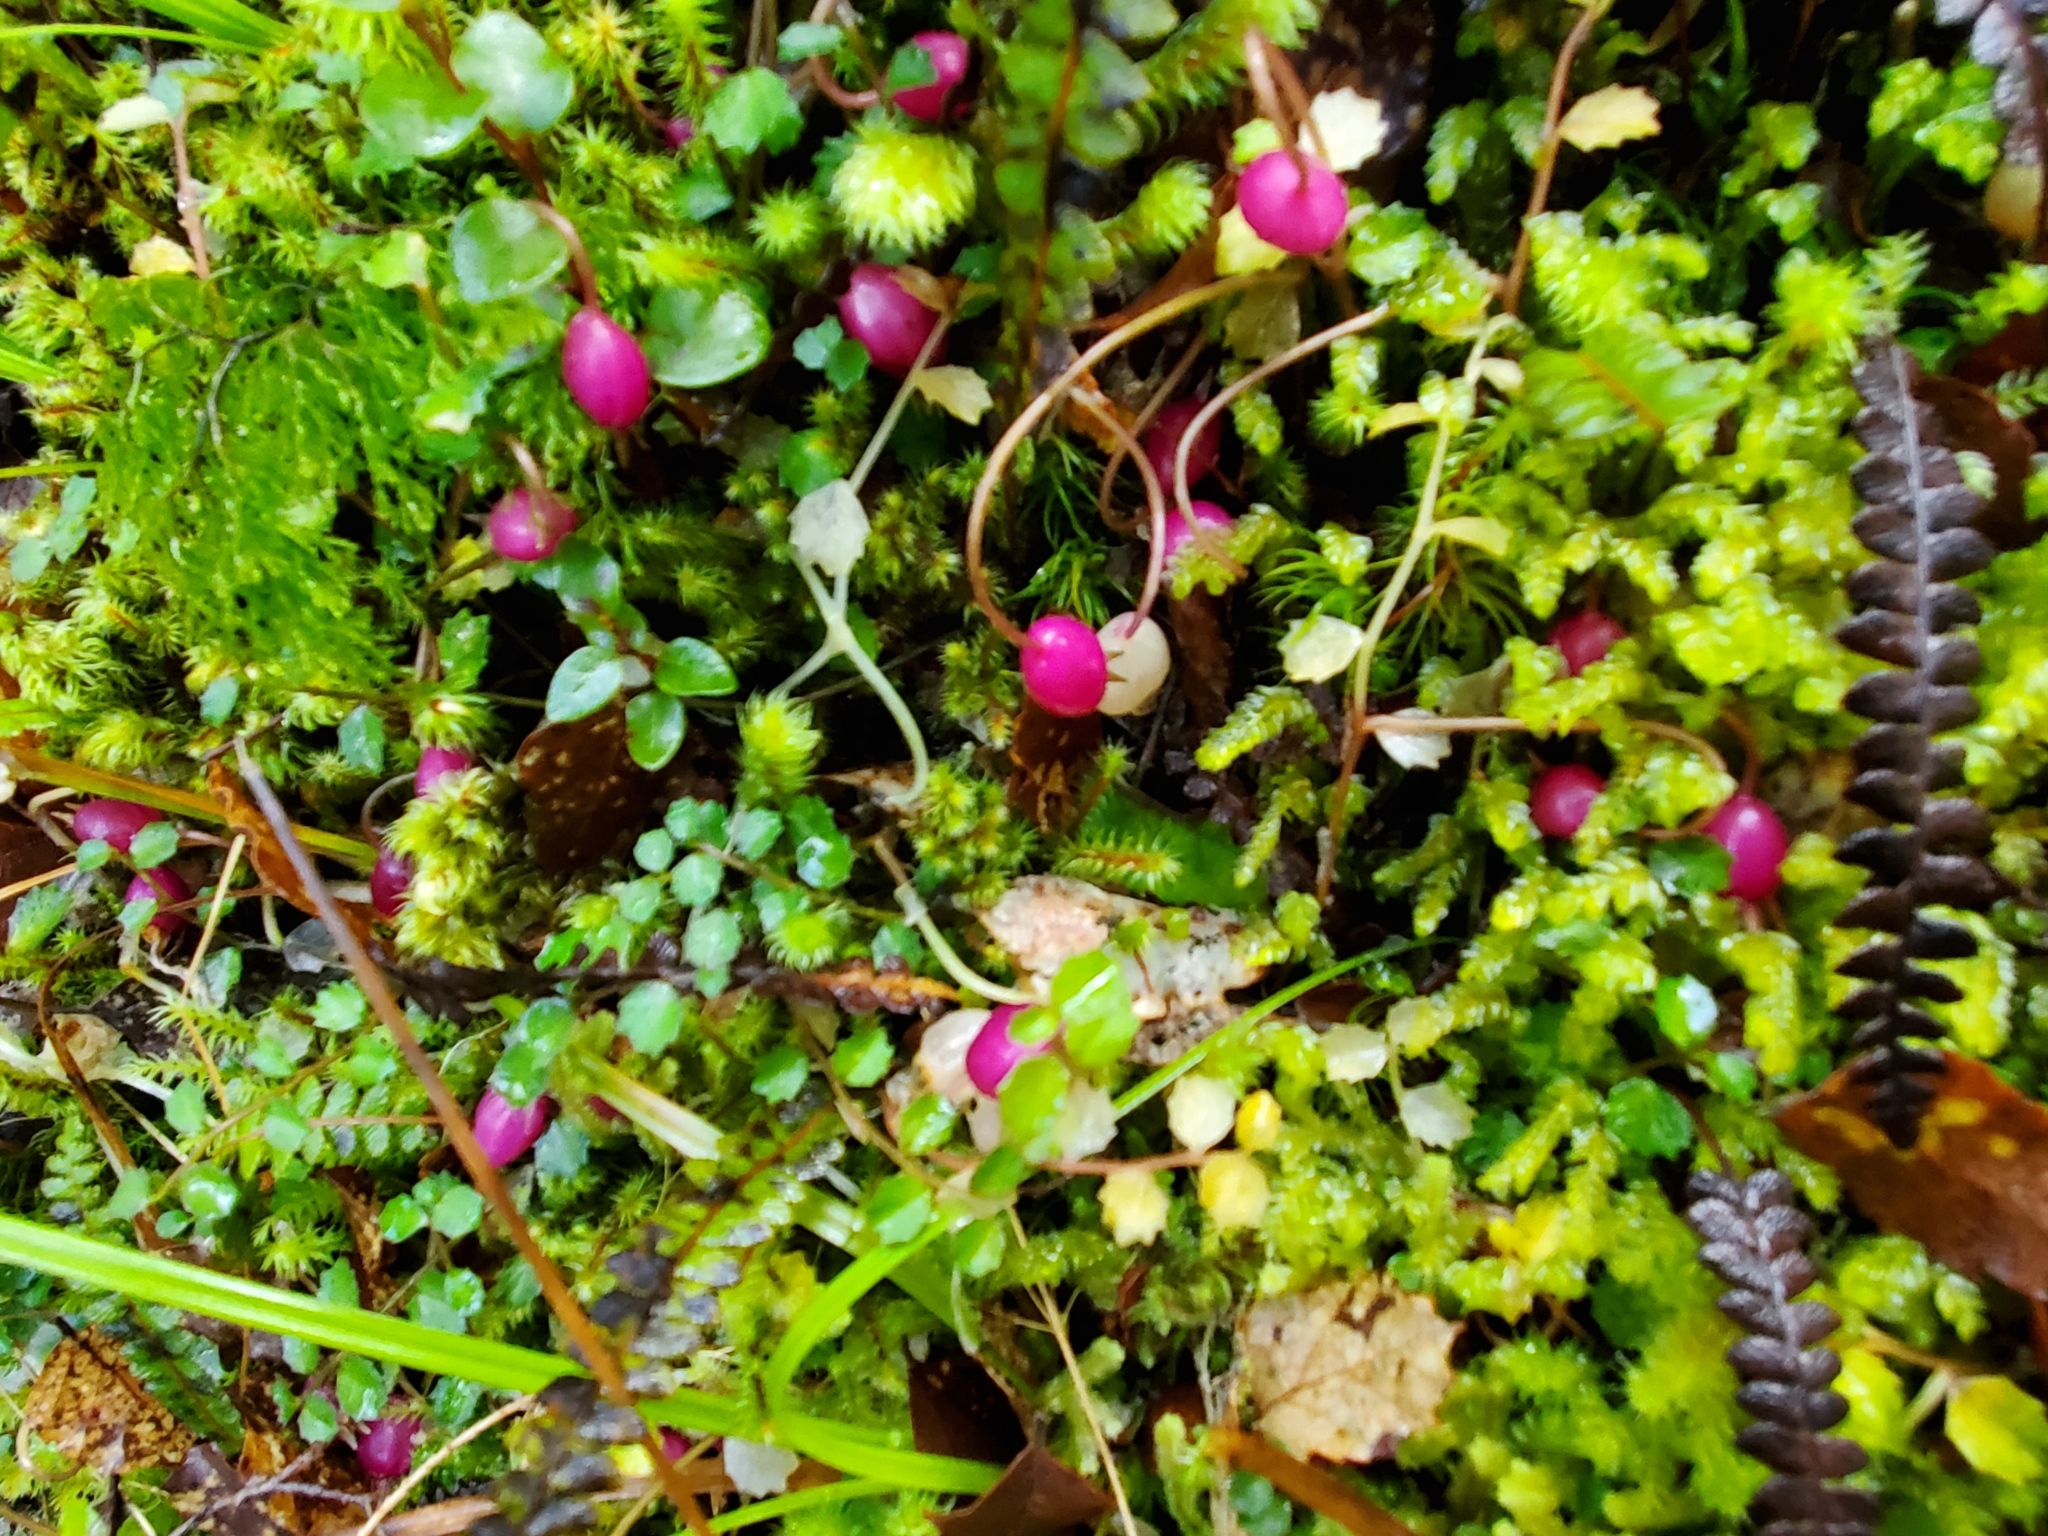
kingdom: Plantae
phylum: Tracheophyta
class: Magnoliopsida
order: Asterales
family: Campanulaceae
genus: Lobelia
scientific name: Lobelia angulata
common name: Lawn lobelia
